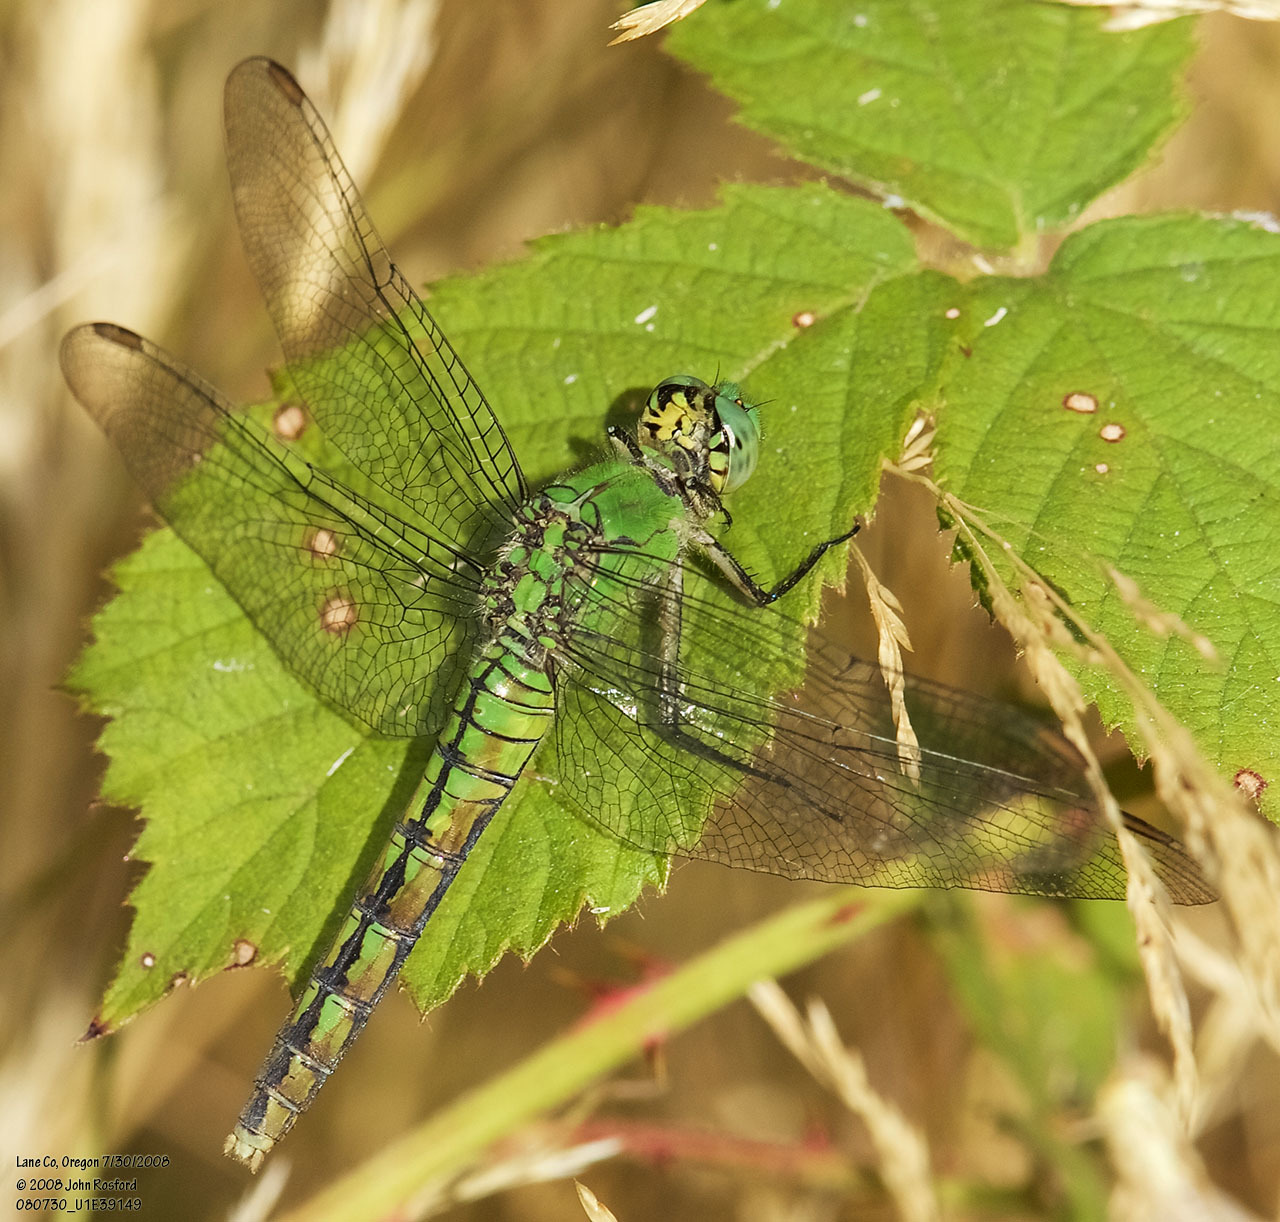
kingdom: Animalia
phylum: Arthropoda
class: Insecta
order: Odonata
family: Libellulidae
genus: Erythemis
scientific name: Erythemis collocata
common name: Western pondhawk
